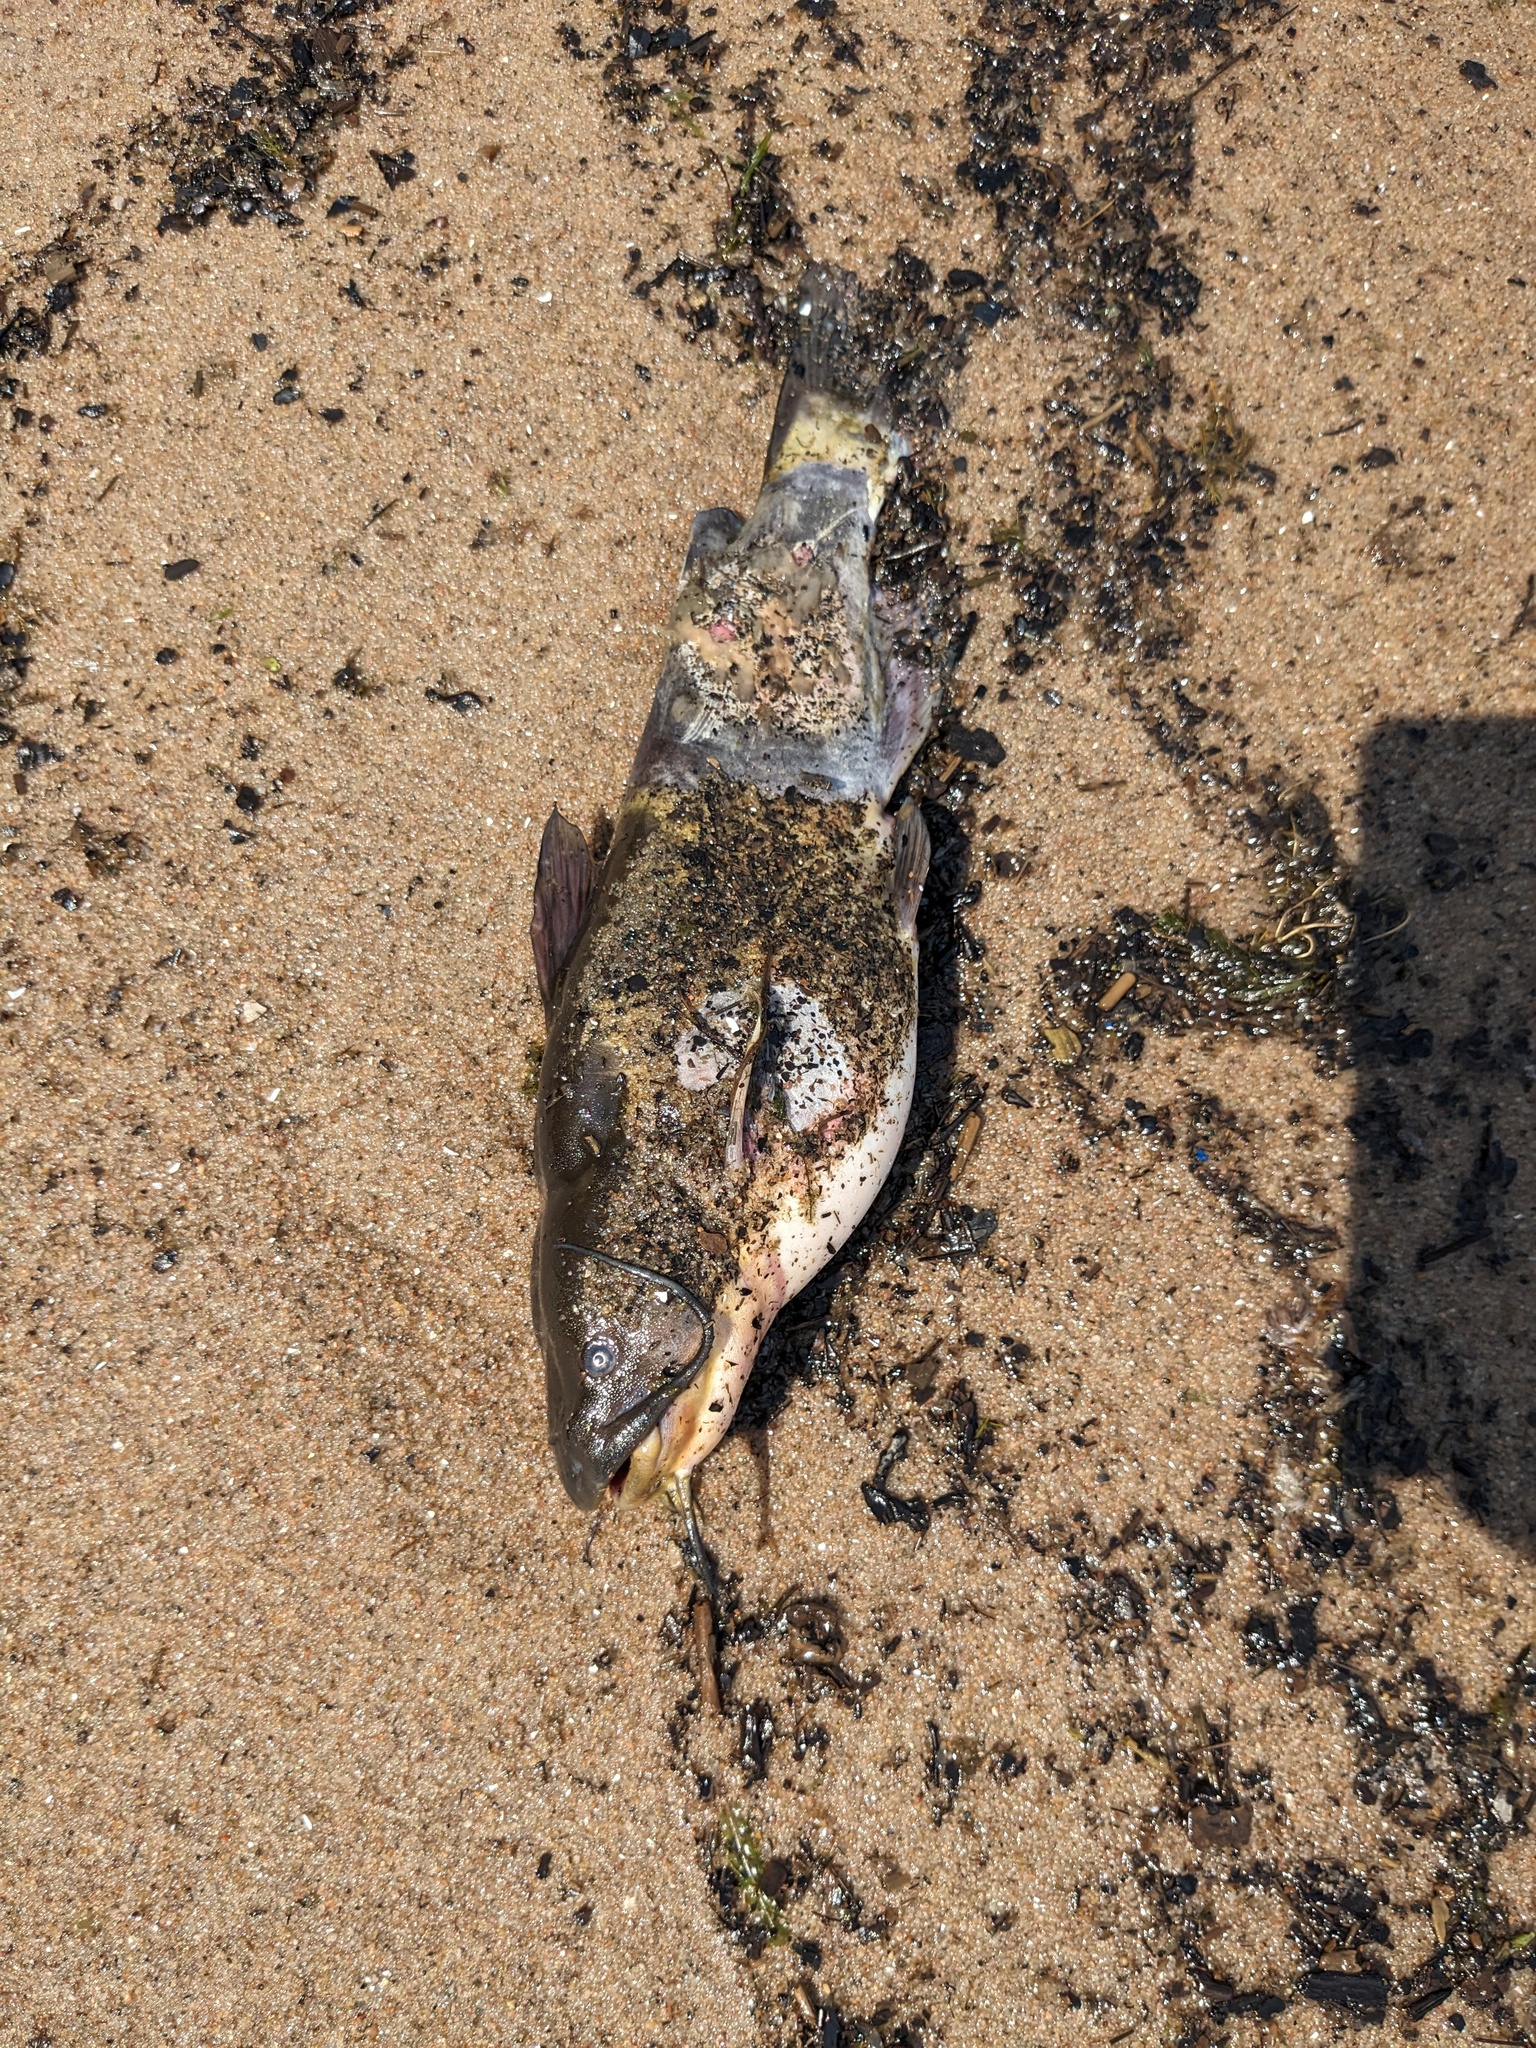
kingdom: Animalia
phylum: Chordata
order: Siluriformes
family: Ictaluridae
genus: Ameiurus
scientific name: Ameiurus nebulosus
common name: Brown bullhead
